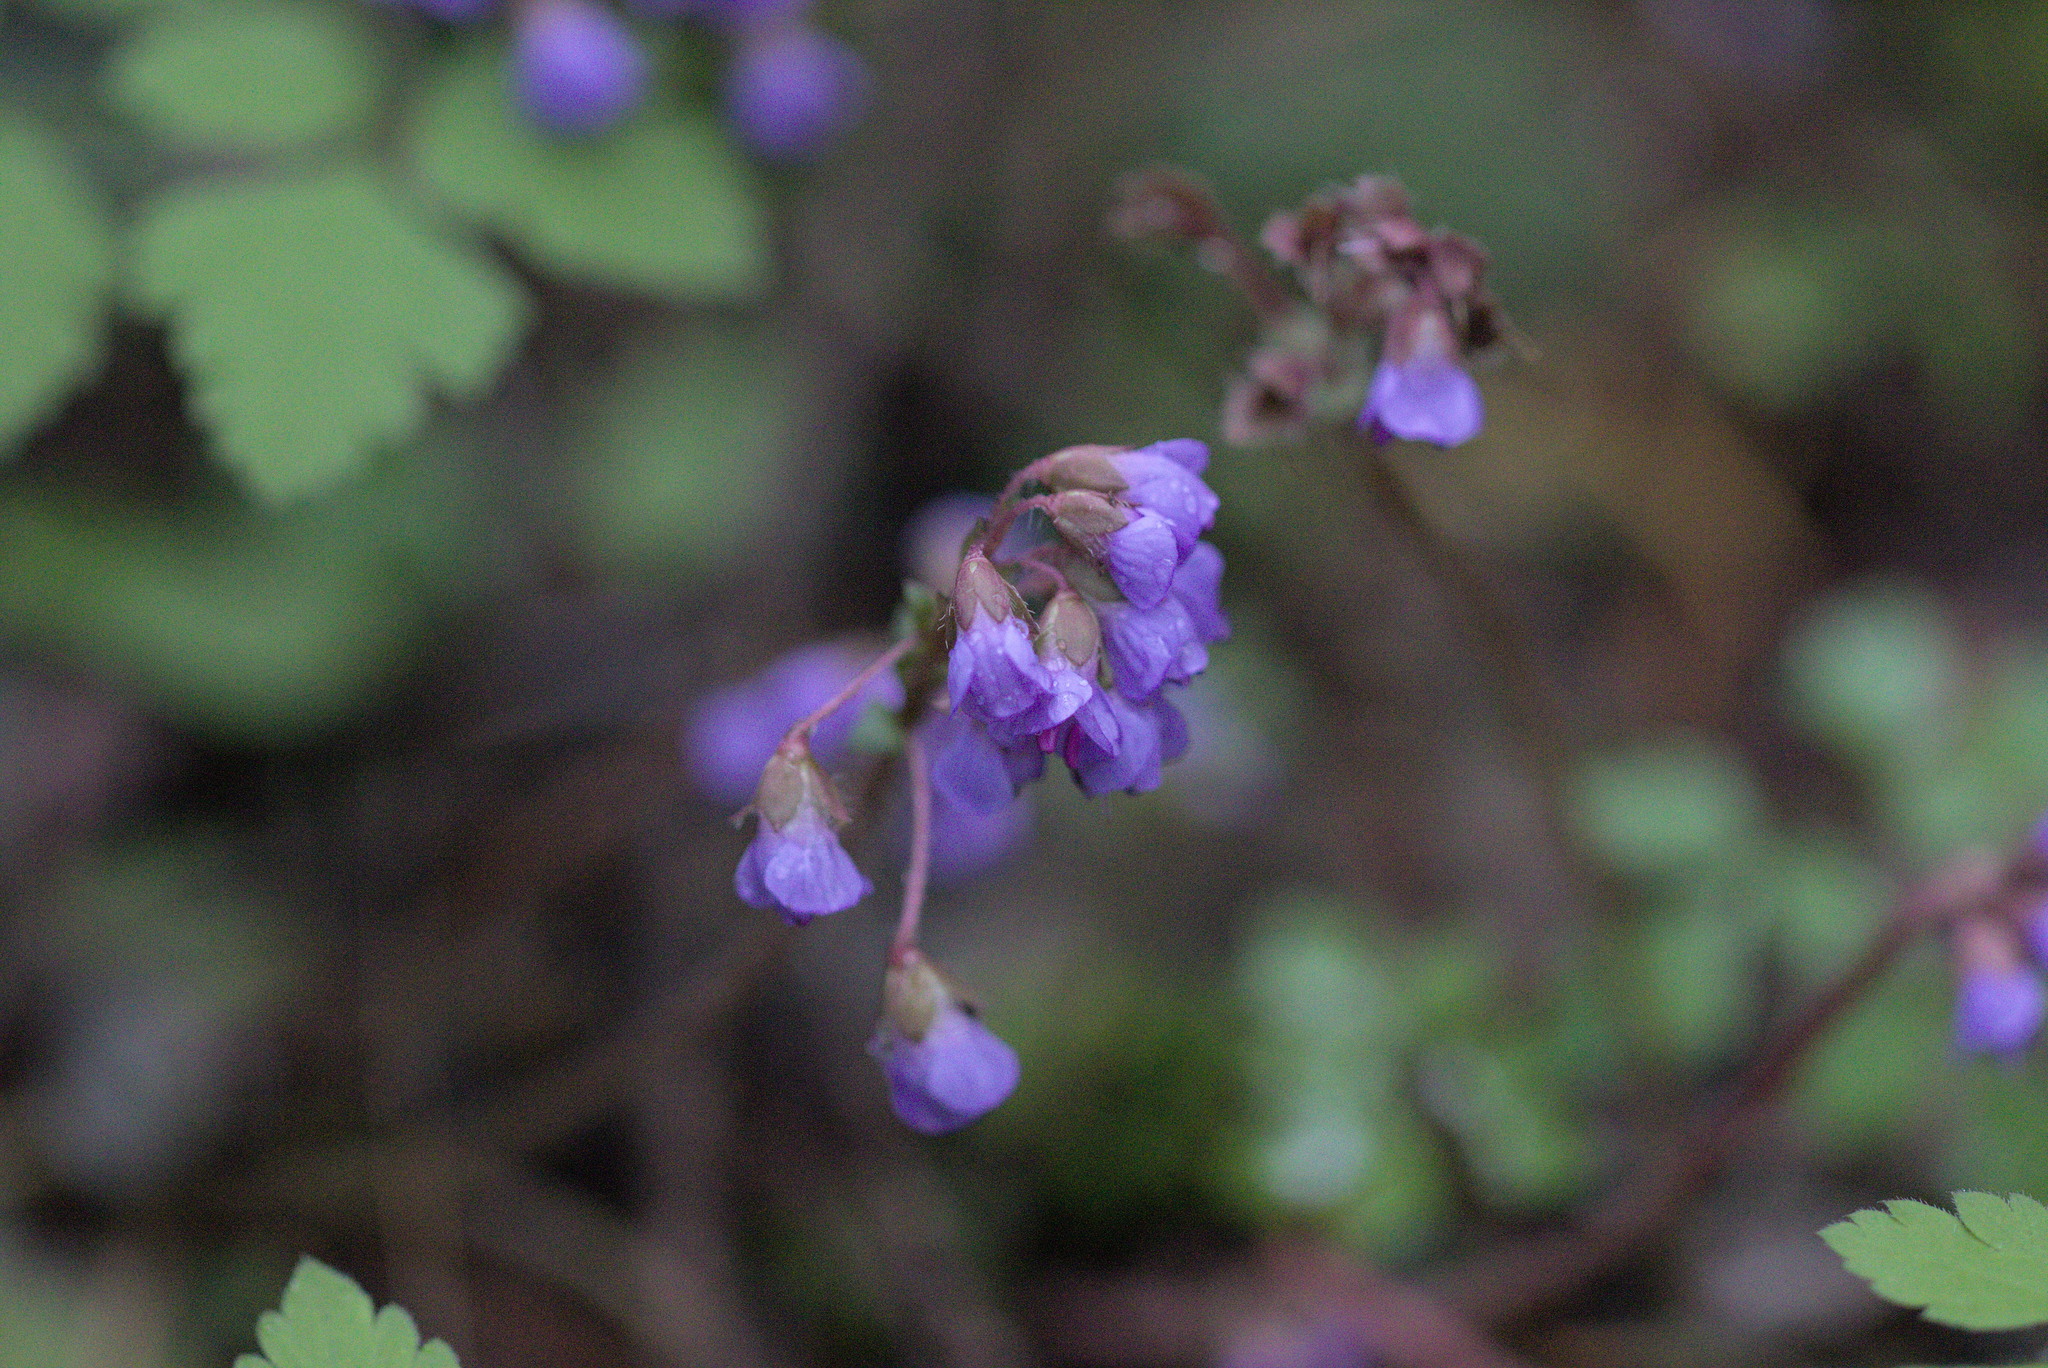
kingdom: Plantae
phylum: Tracheophyta
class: Magnoliopsida
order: Lamiales
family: Plantaginaceae
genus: Synthyris
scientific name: Synthyris reniformis
